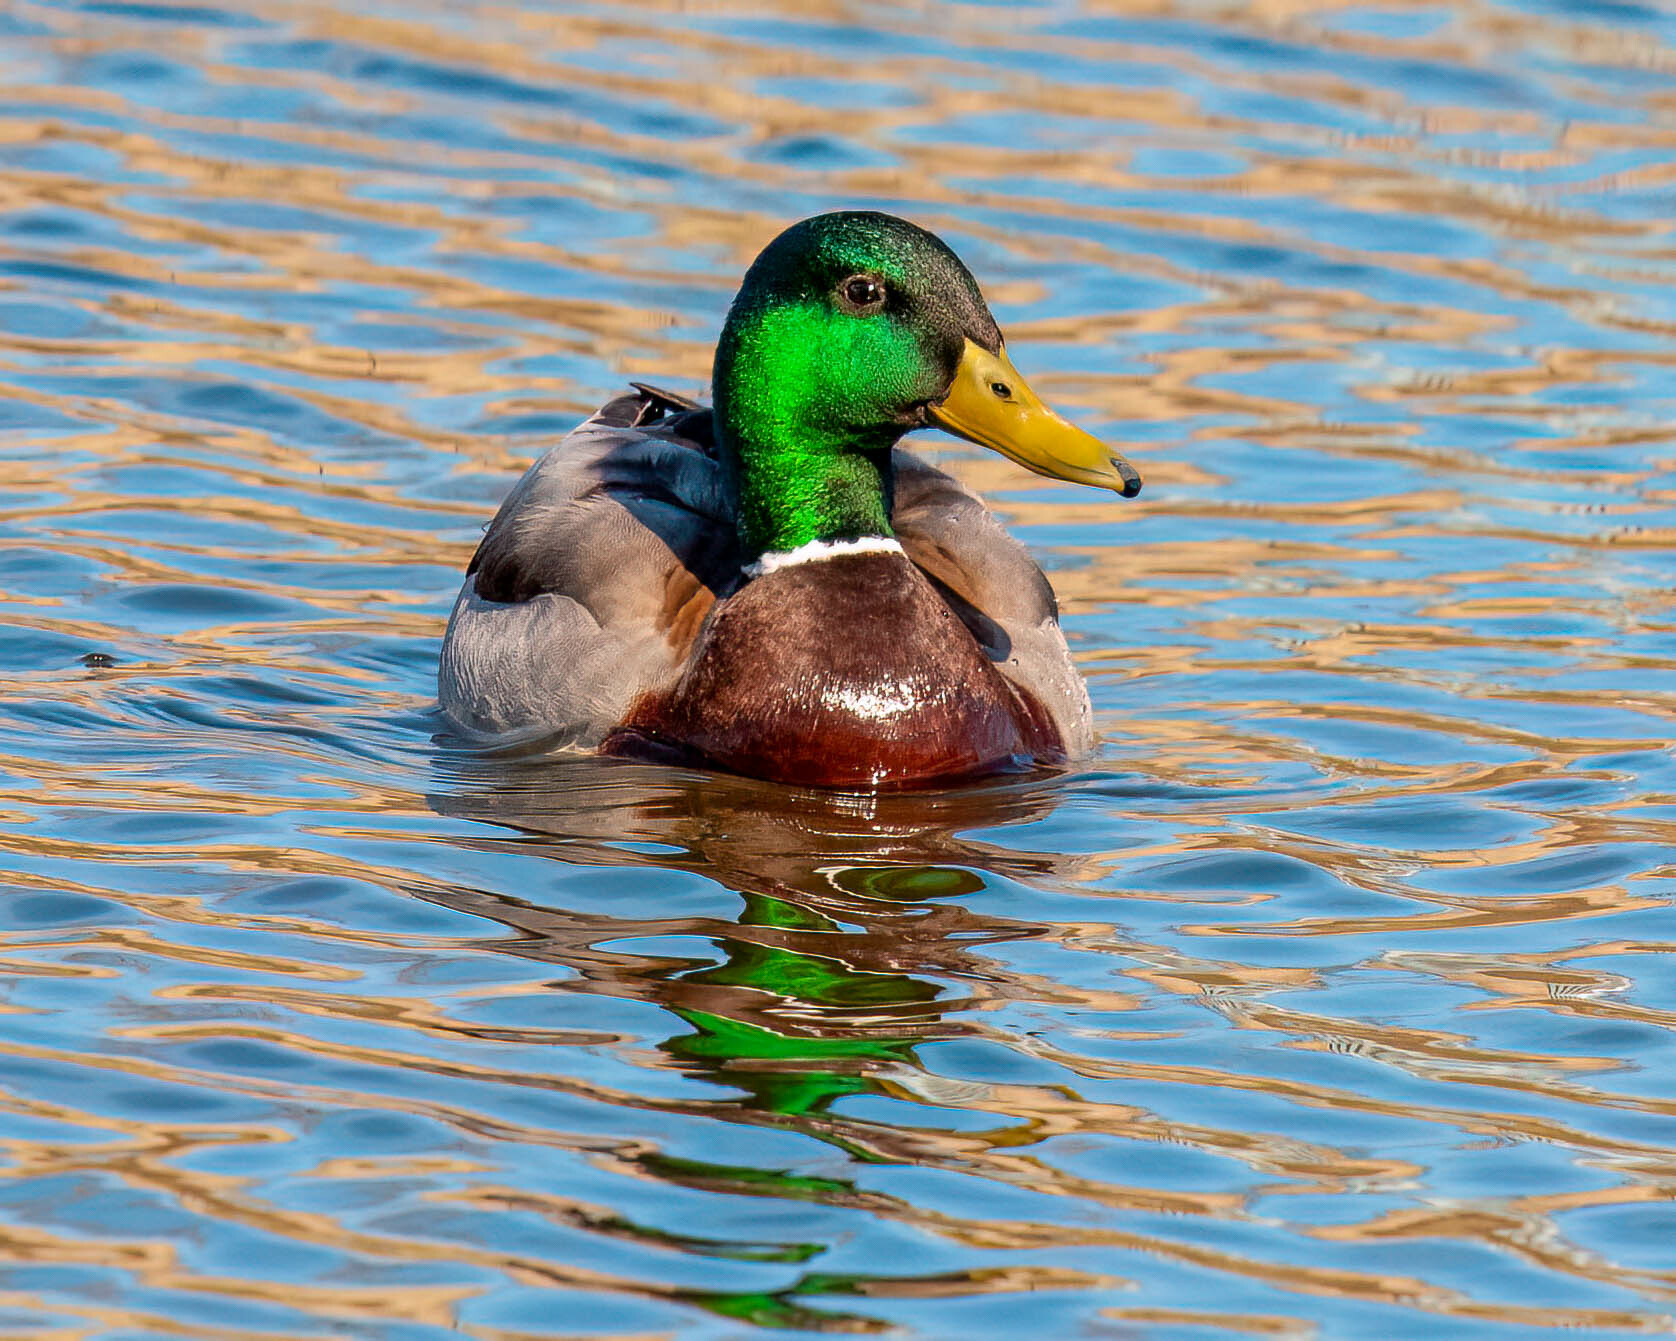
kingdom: Animalia
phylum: Chordata
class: Aves
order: Anseriformes
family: Anatidae
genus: Anas
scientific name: Anas platyrhynchos
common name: Mallard
